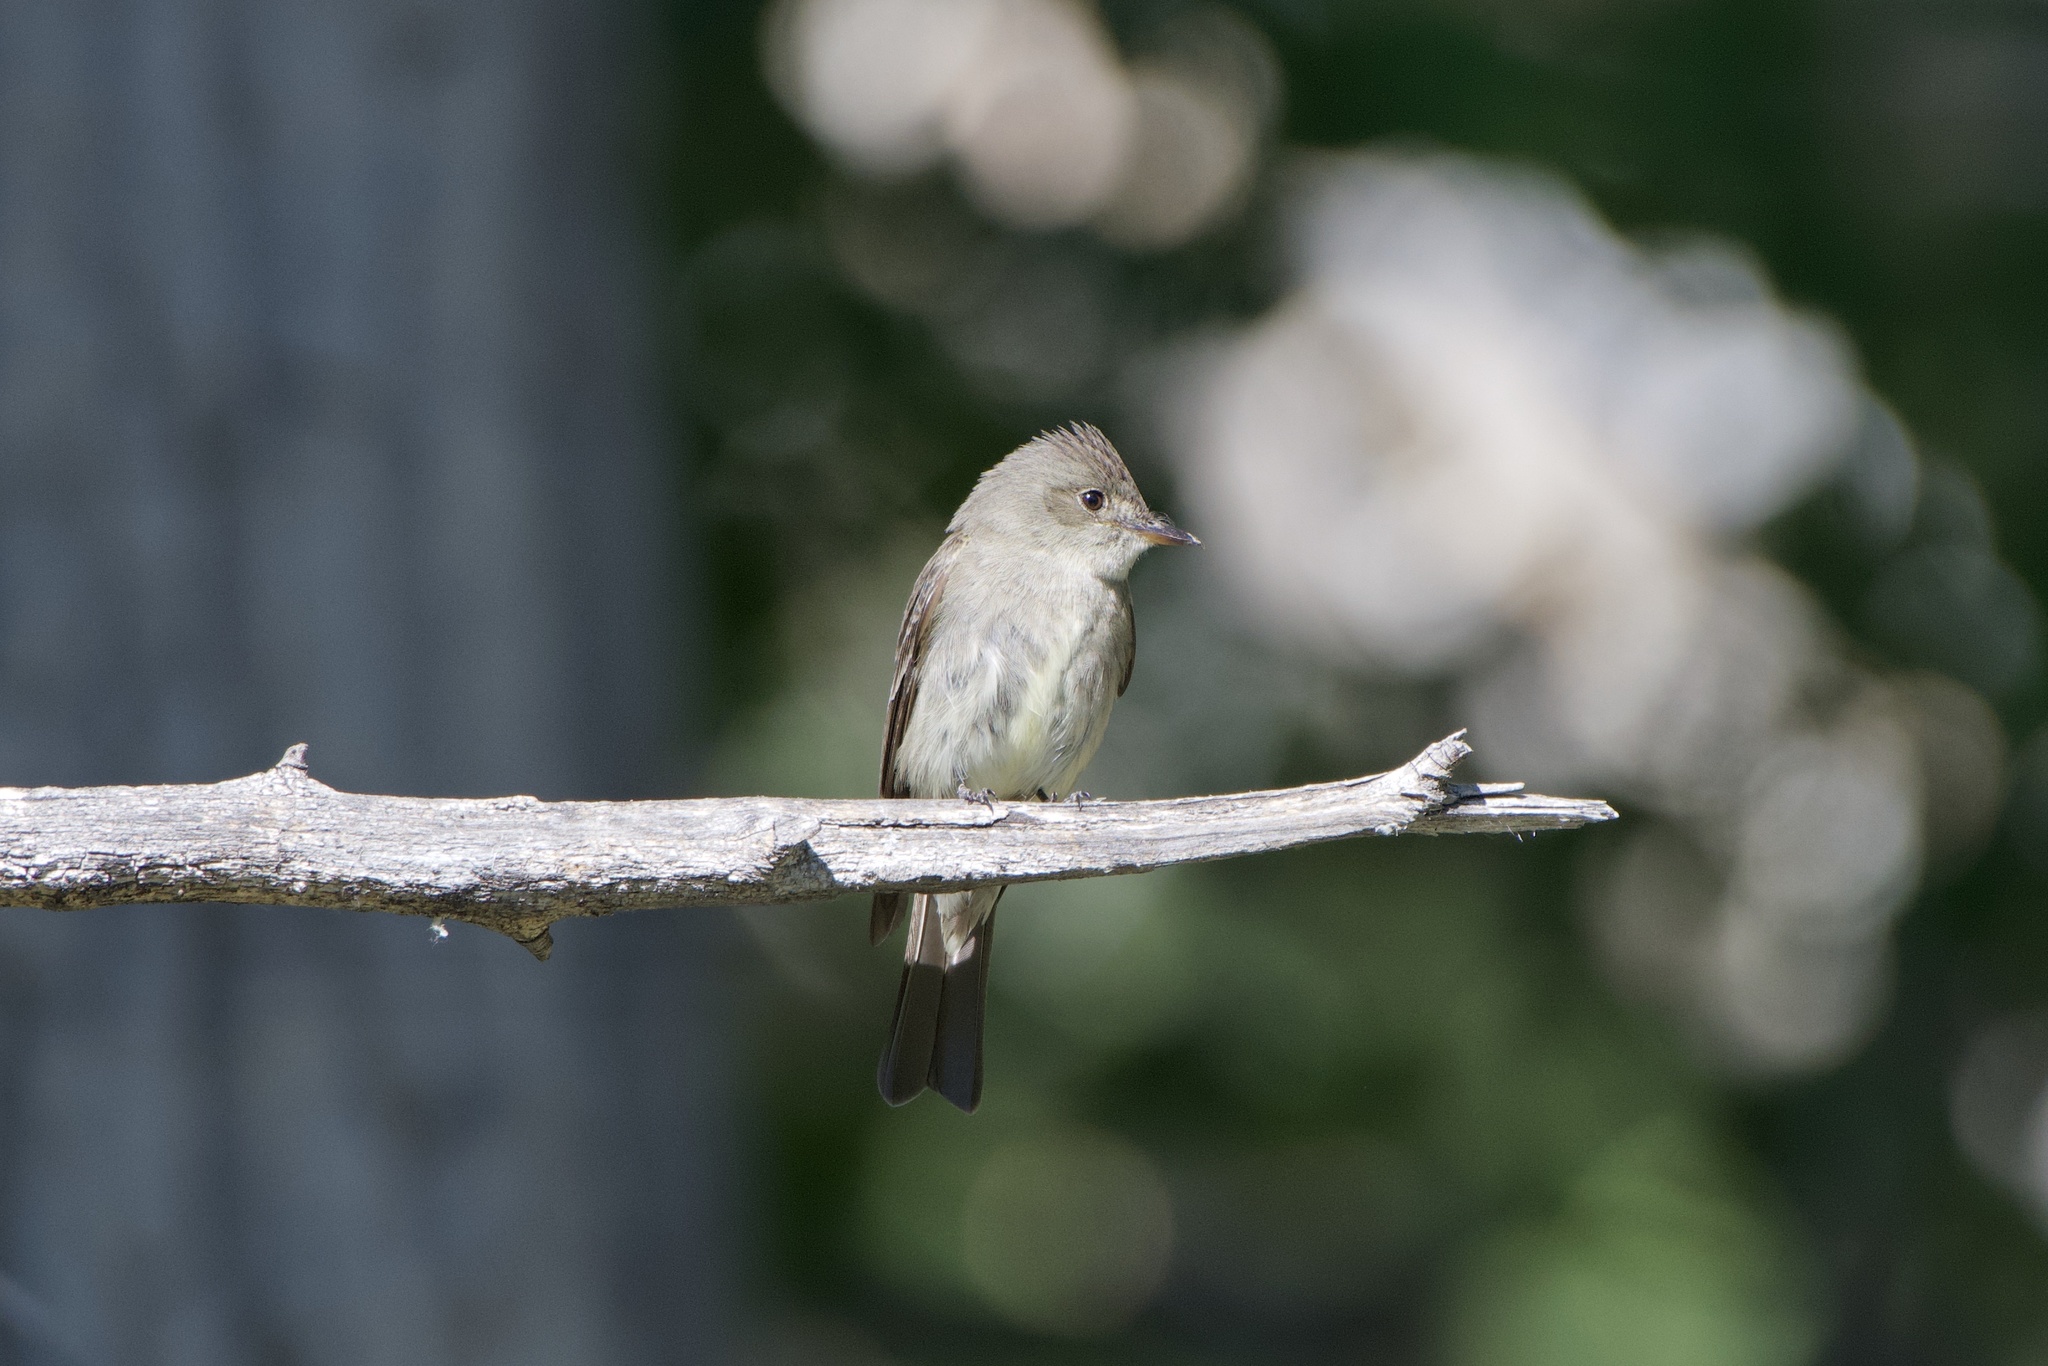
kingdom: Animalia
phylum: Chordata
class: Aves
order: Passeriformes
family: Tyrannidae
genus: Contopus
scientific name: Contopus sordidulus
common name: Western wood-pewee
